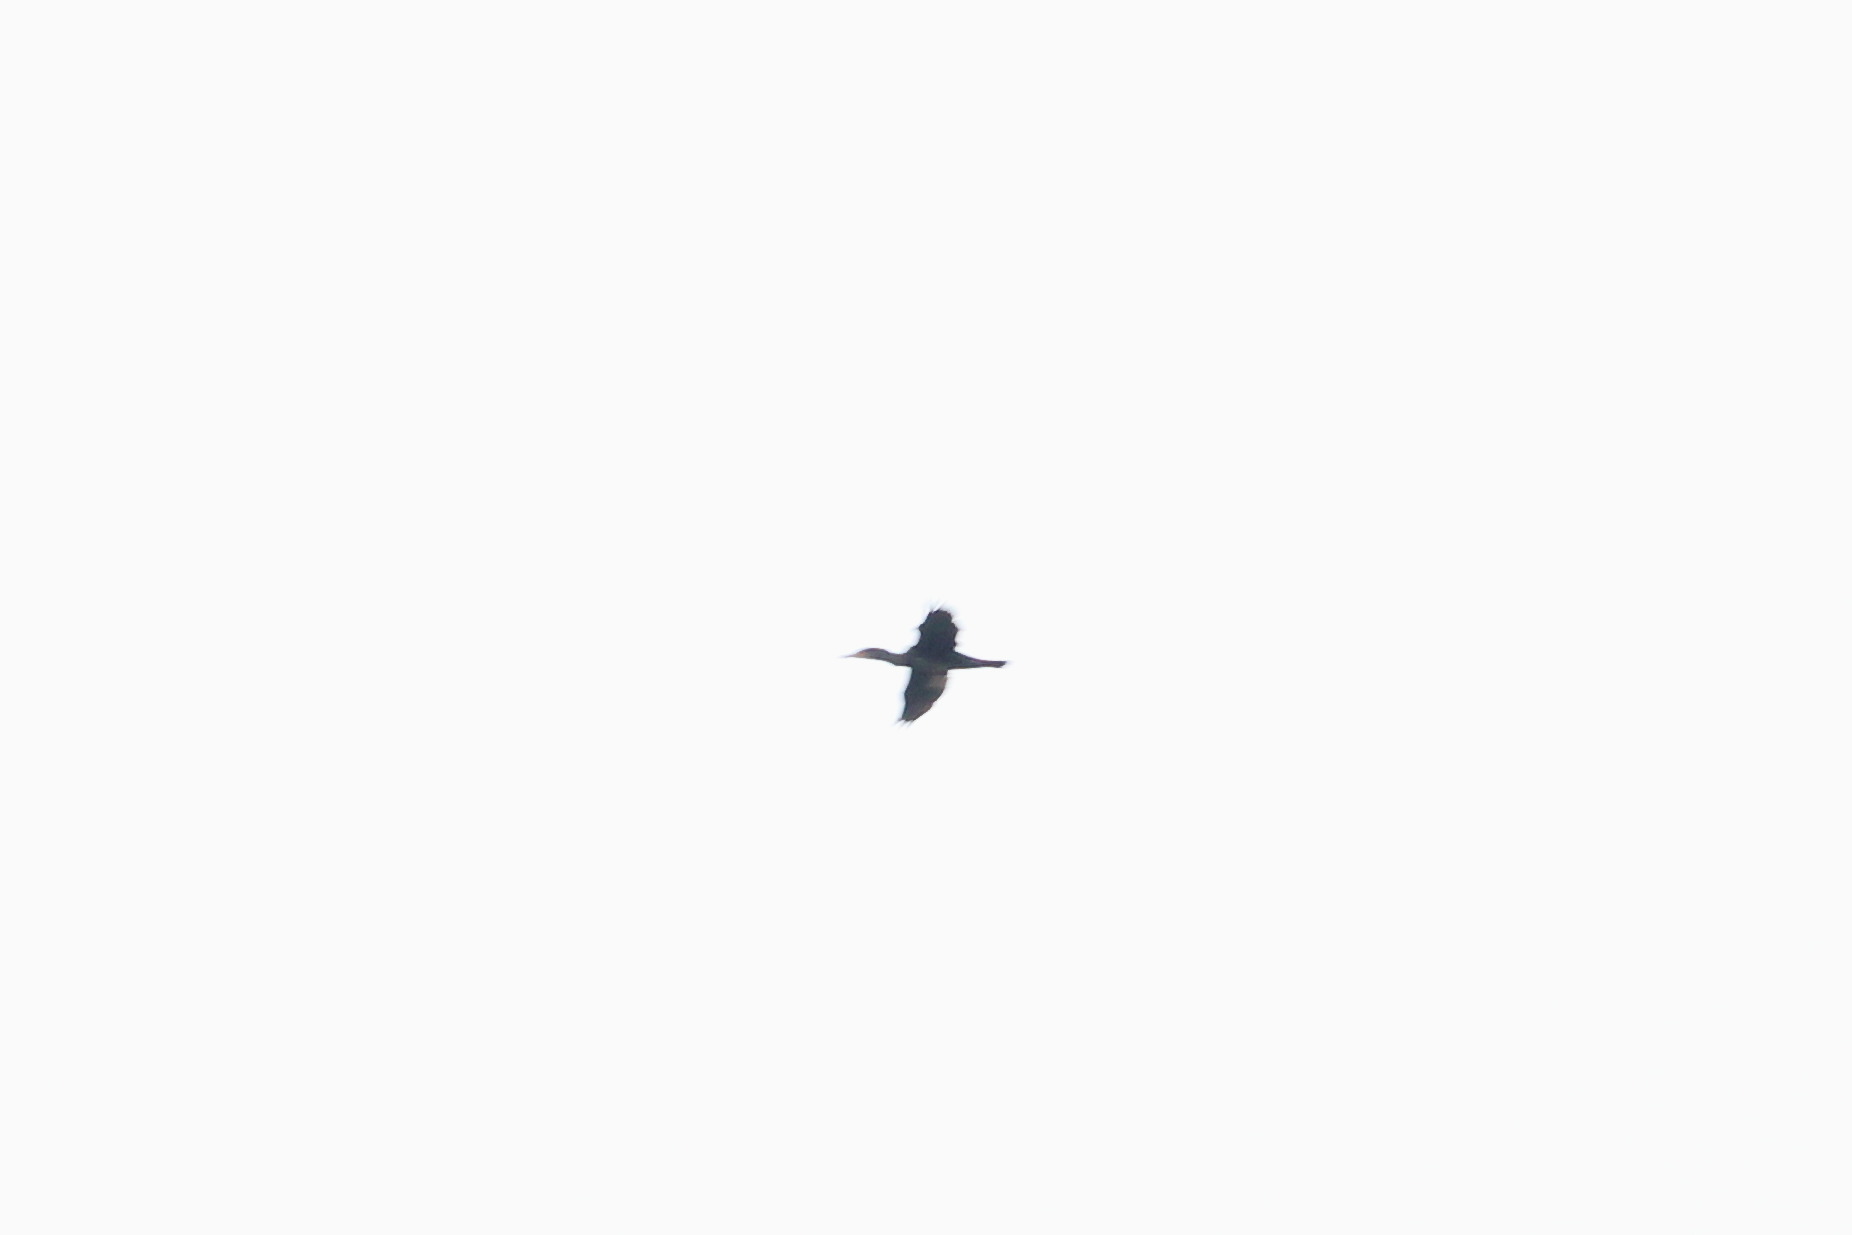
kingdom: Animalia
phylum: Chordata
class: Aves
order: Suliformes
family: Phalacrocoracidae
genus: Phalacrocorax
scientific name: Phalacrocorax carbo
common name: Great cormorant
